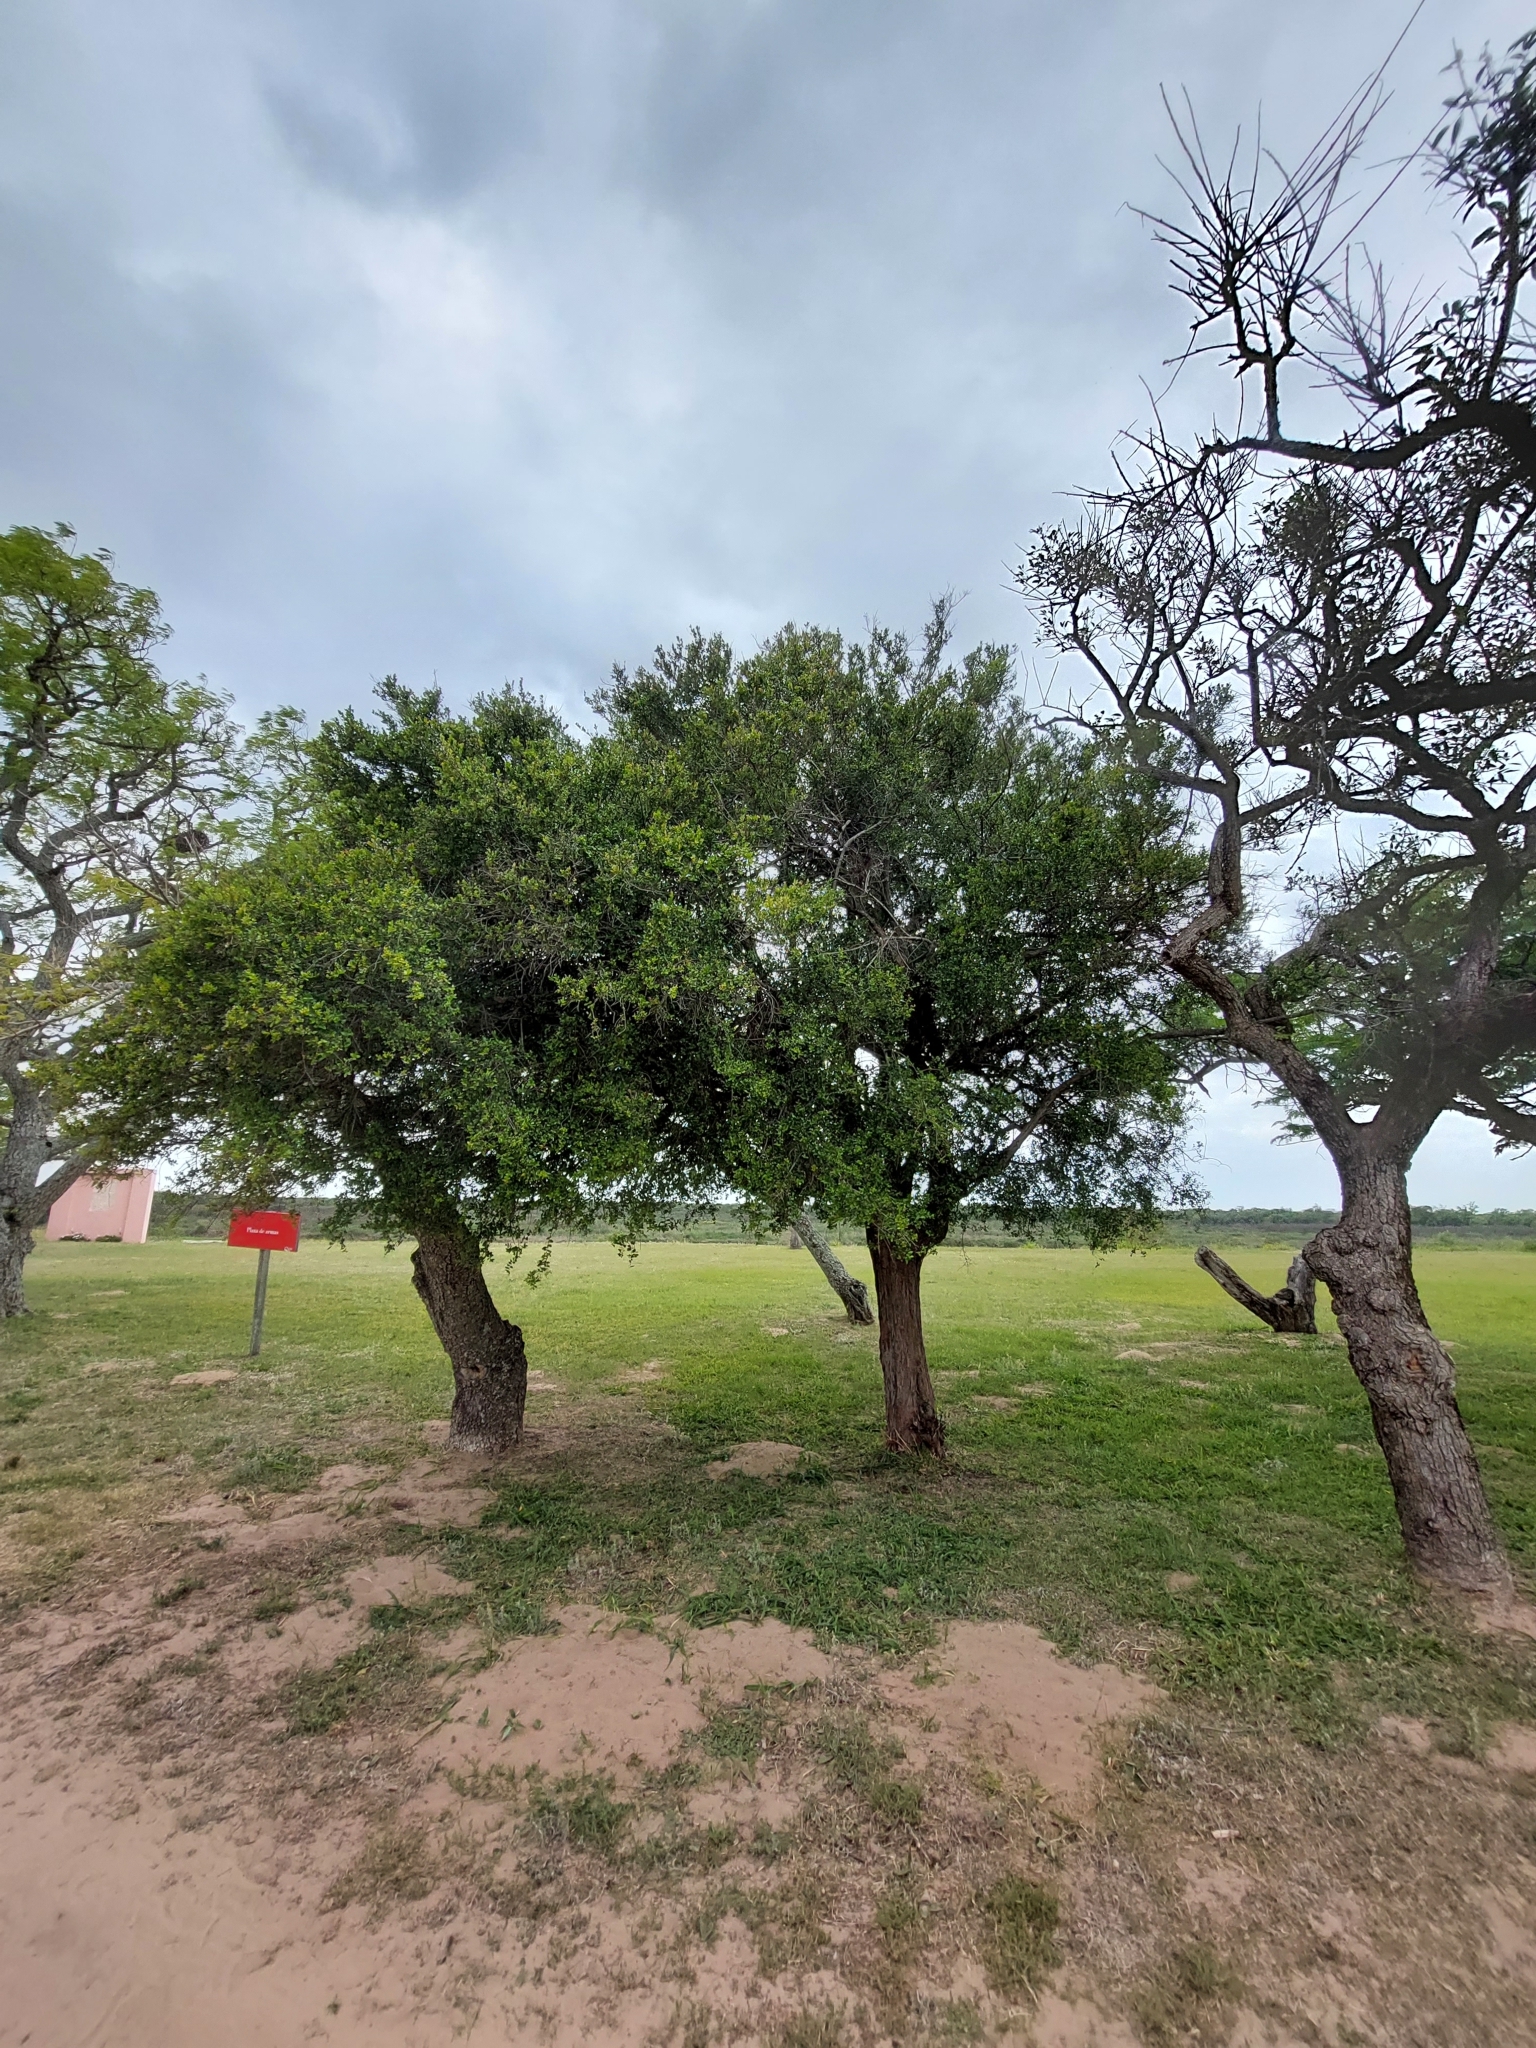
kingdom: Plantae
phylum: Tracheophyta
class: Magnoliopsida
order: Rosales
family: Rhamnaceae
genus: Scutia
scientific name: Scutia buxifolia
